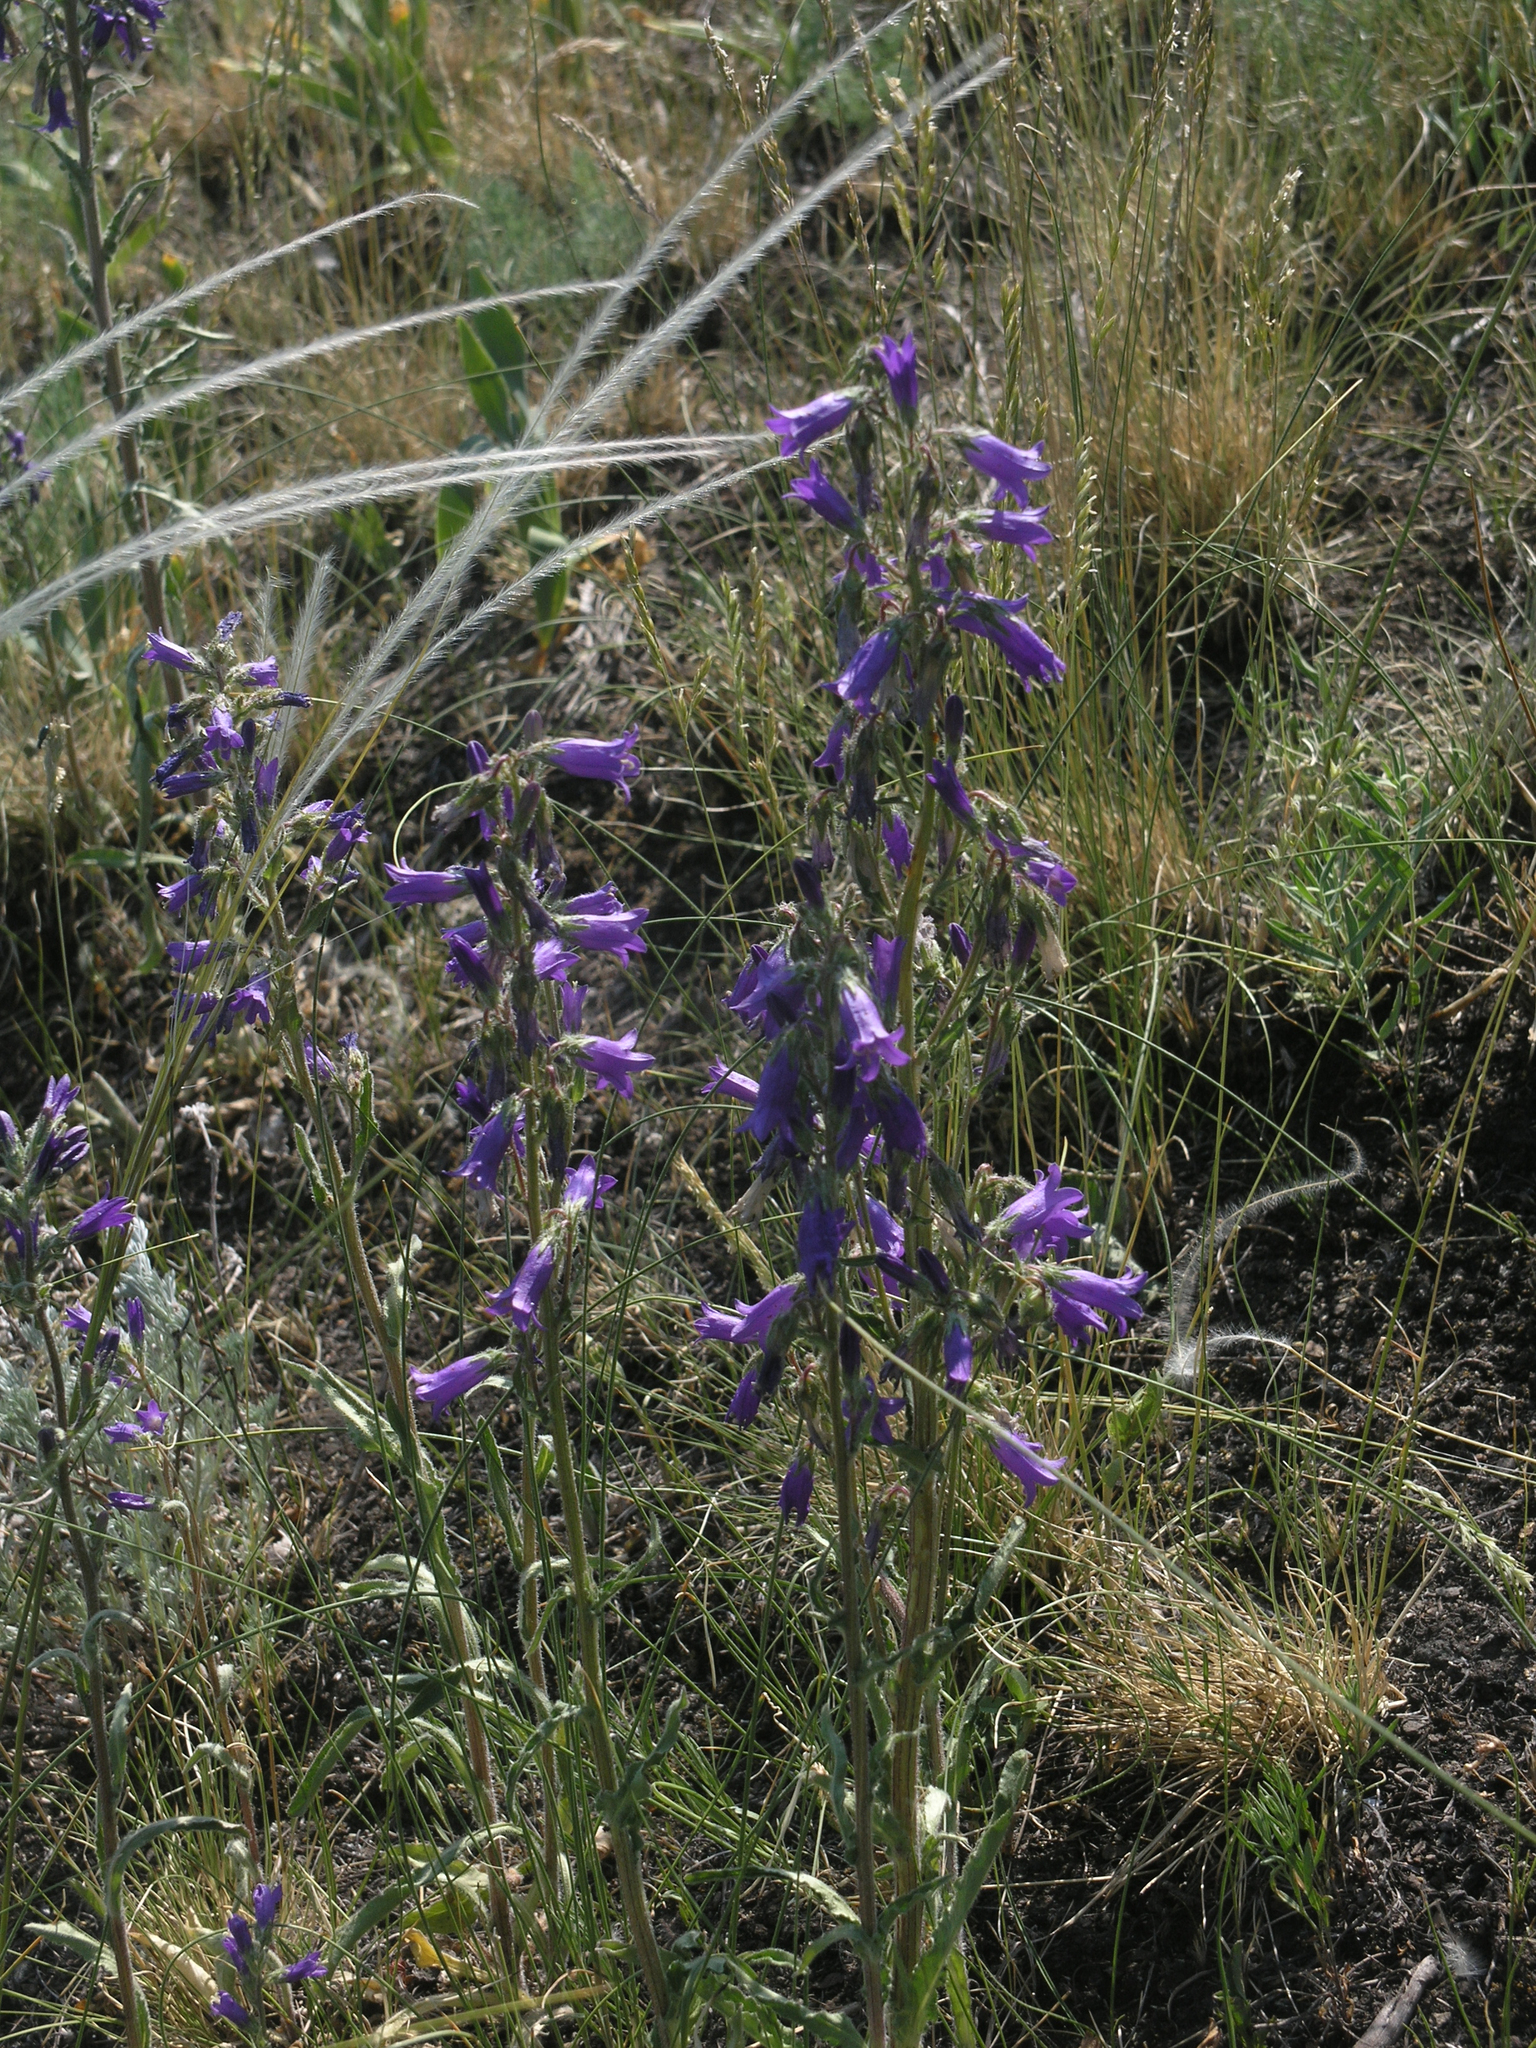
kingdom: Plantae
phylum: Tracheophyta
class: Magnoliopsida
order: Asterales
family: Campanulaceae
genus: Campanula
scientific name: Campanula sibirica
